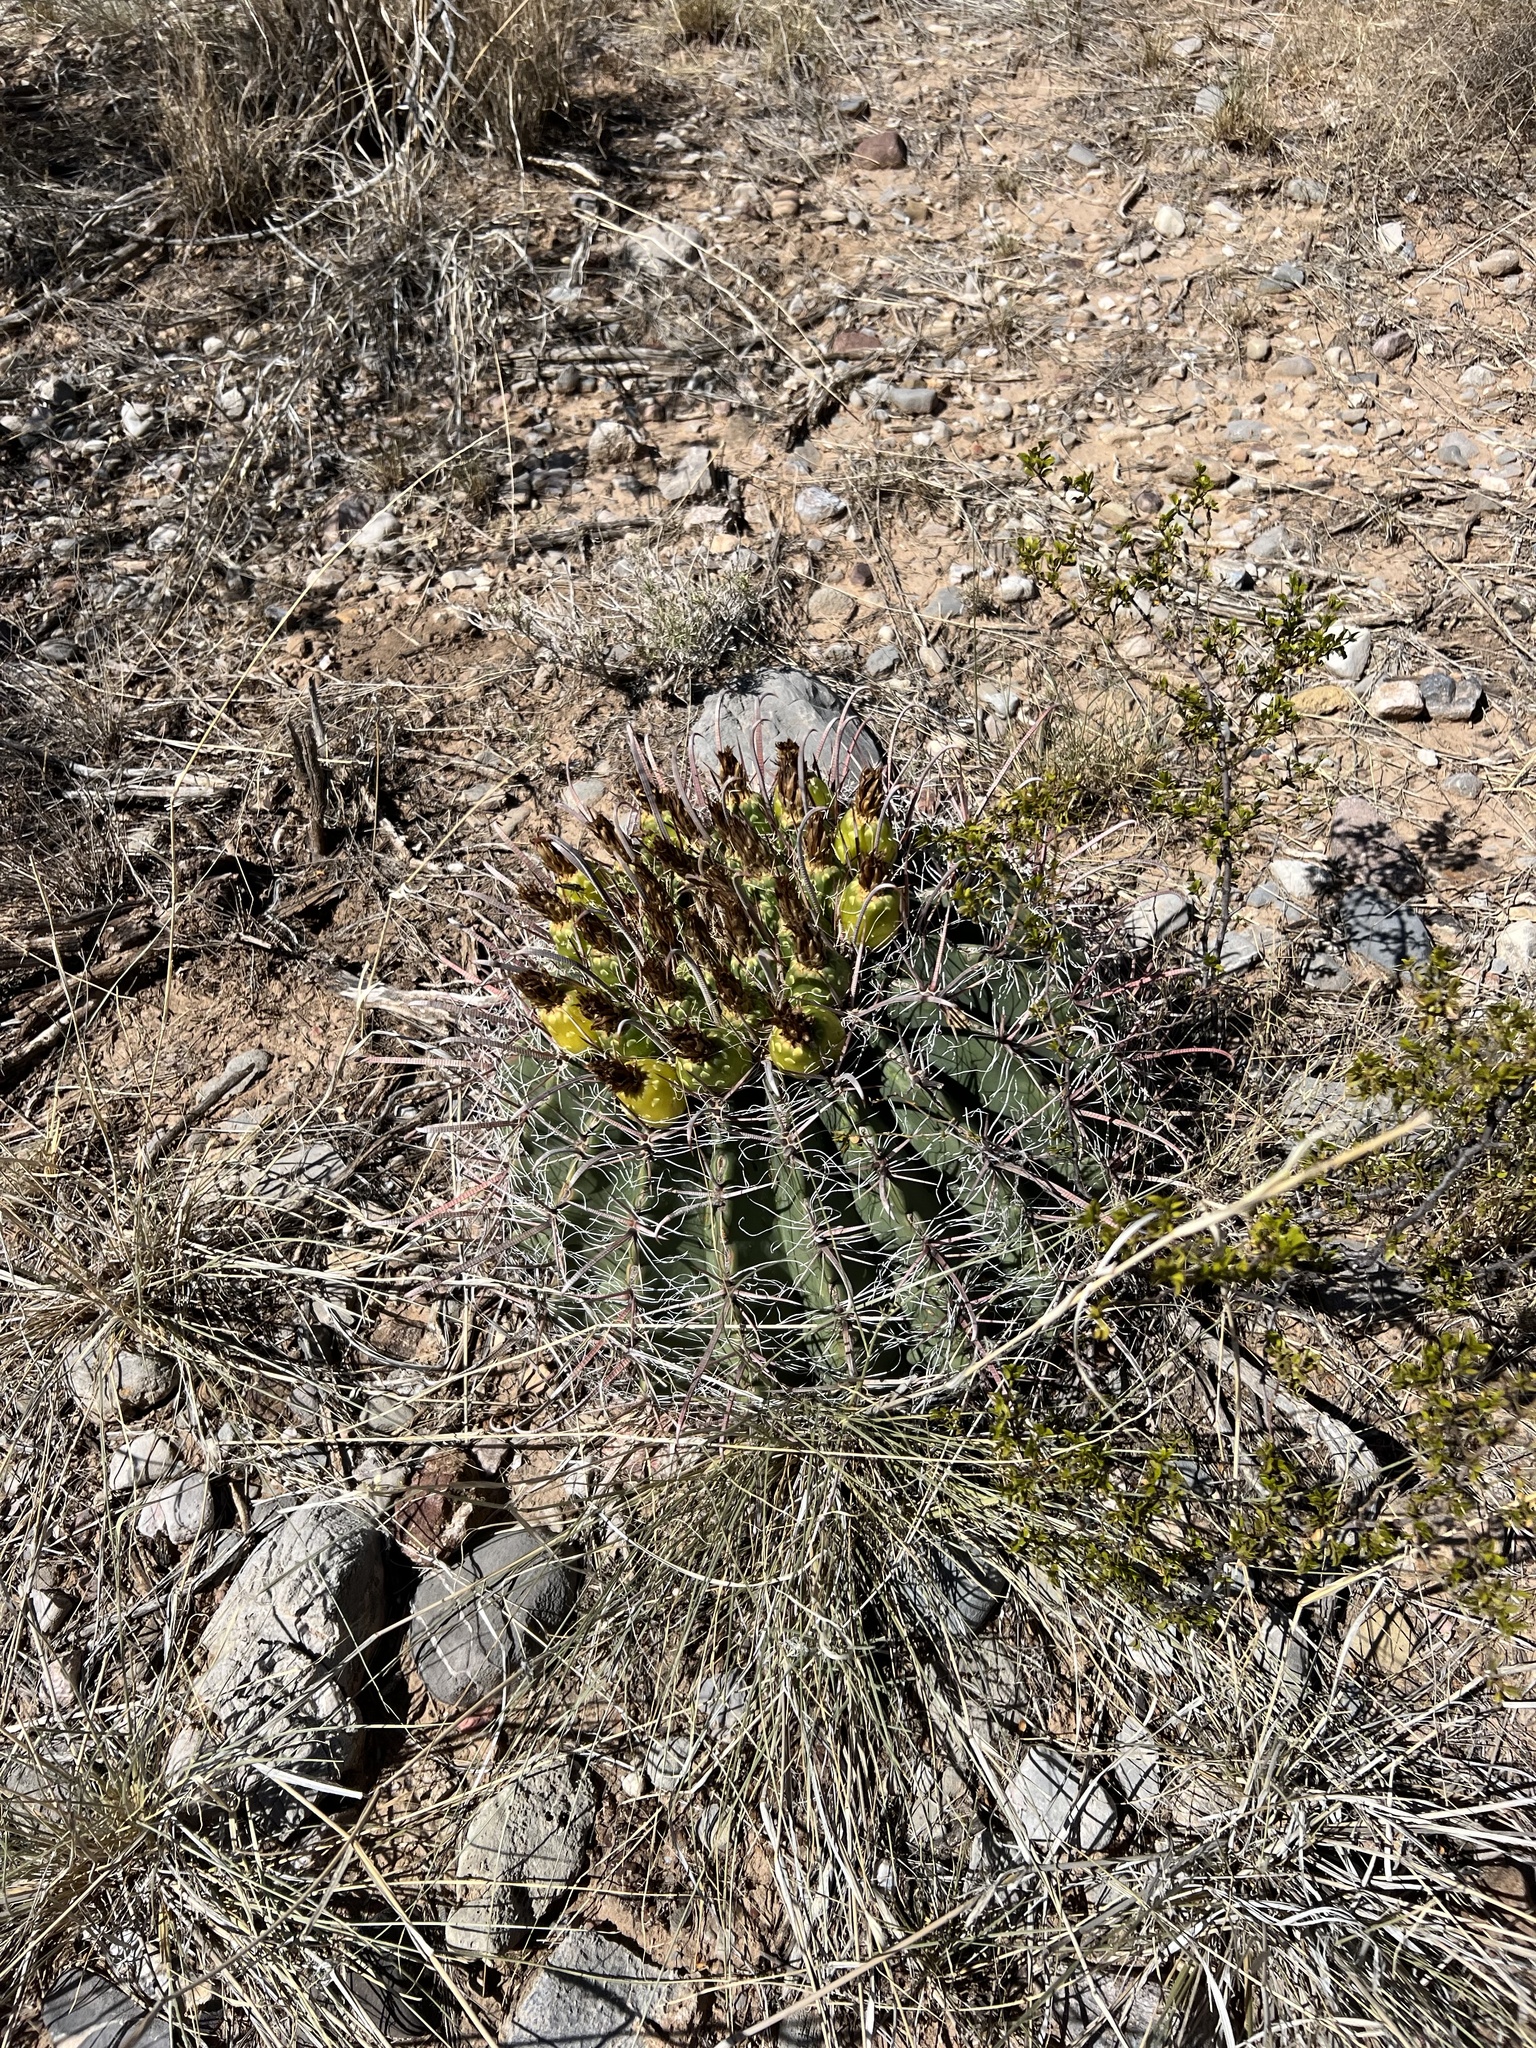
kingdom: Plantae
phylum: Tracheophyta
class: Magnoliopsida
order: Caryophyllales
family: Cactaceae
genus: Ferocactus
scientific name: Ferocactus wislizeni
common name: Candy barrel cactus
